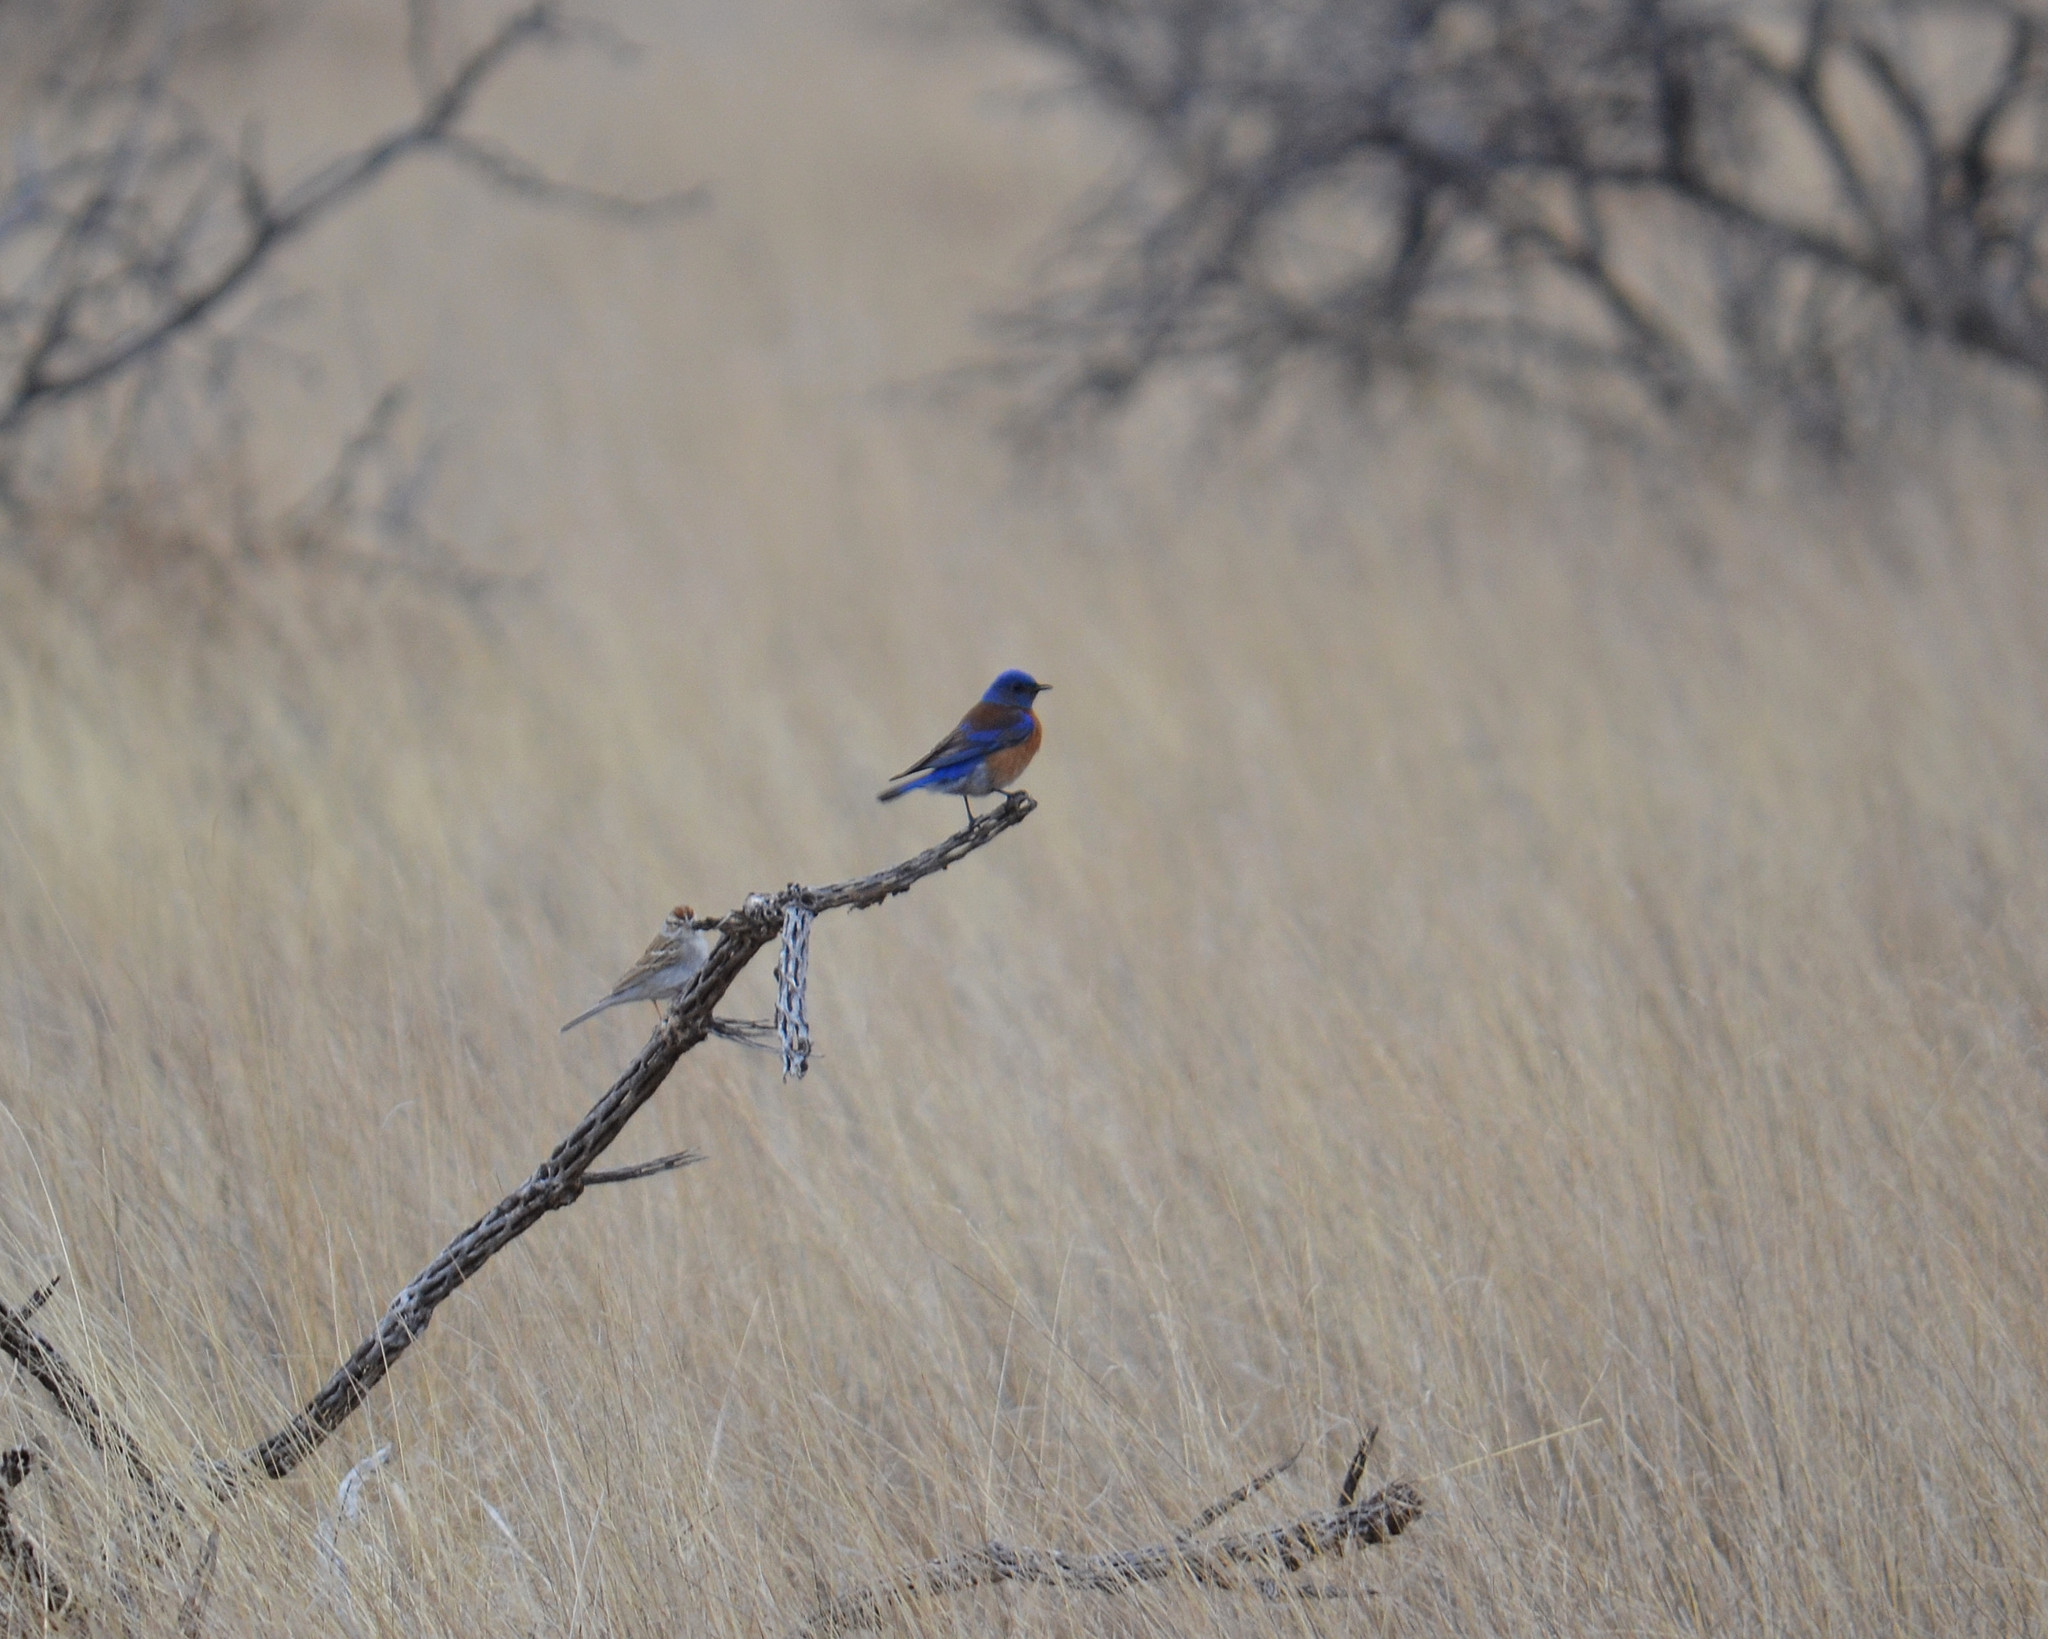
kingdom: Animalia
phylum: Chordata
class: Aves
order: Passeriformes
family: Turdidae
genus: Sialia
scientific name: Sialia mexicana
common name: Western bluebird
